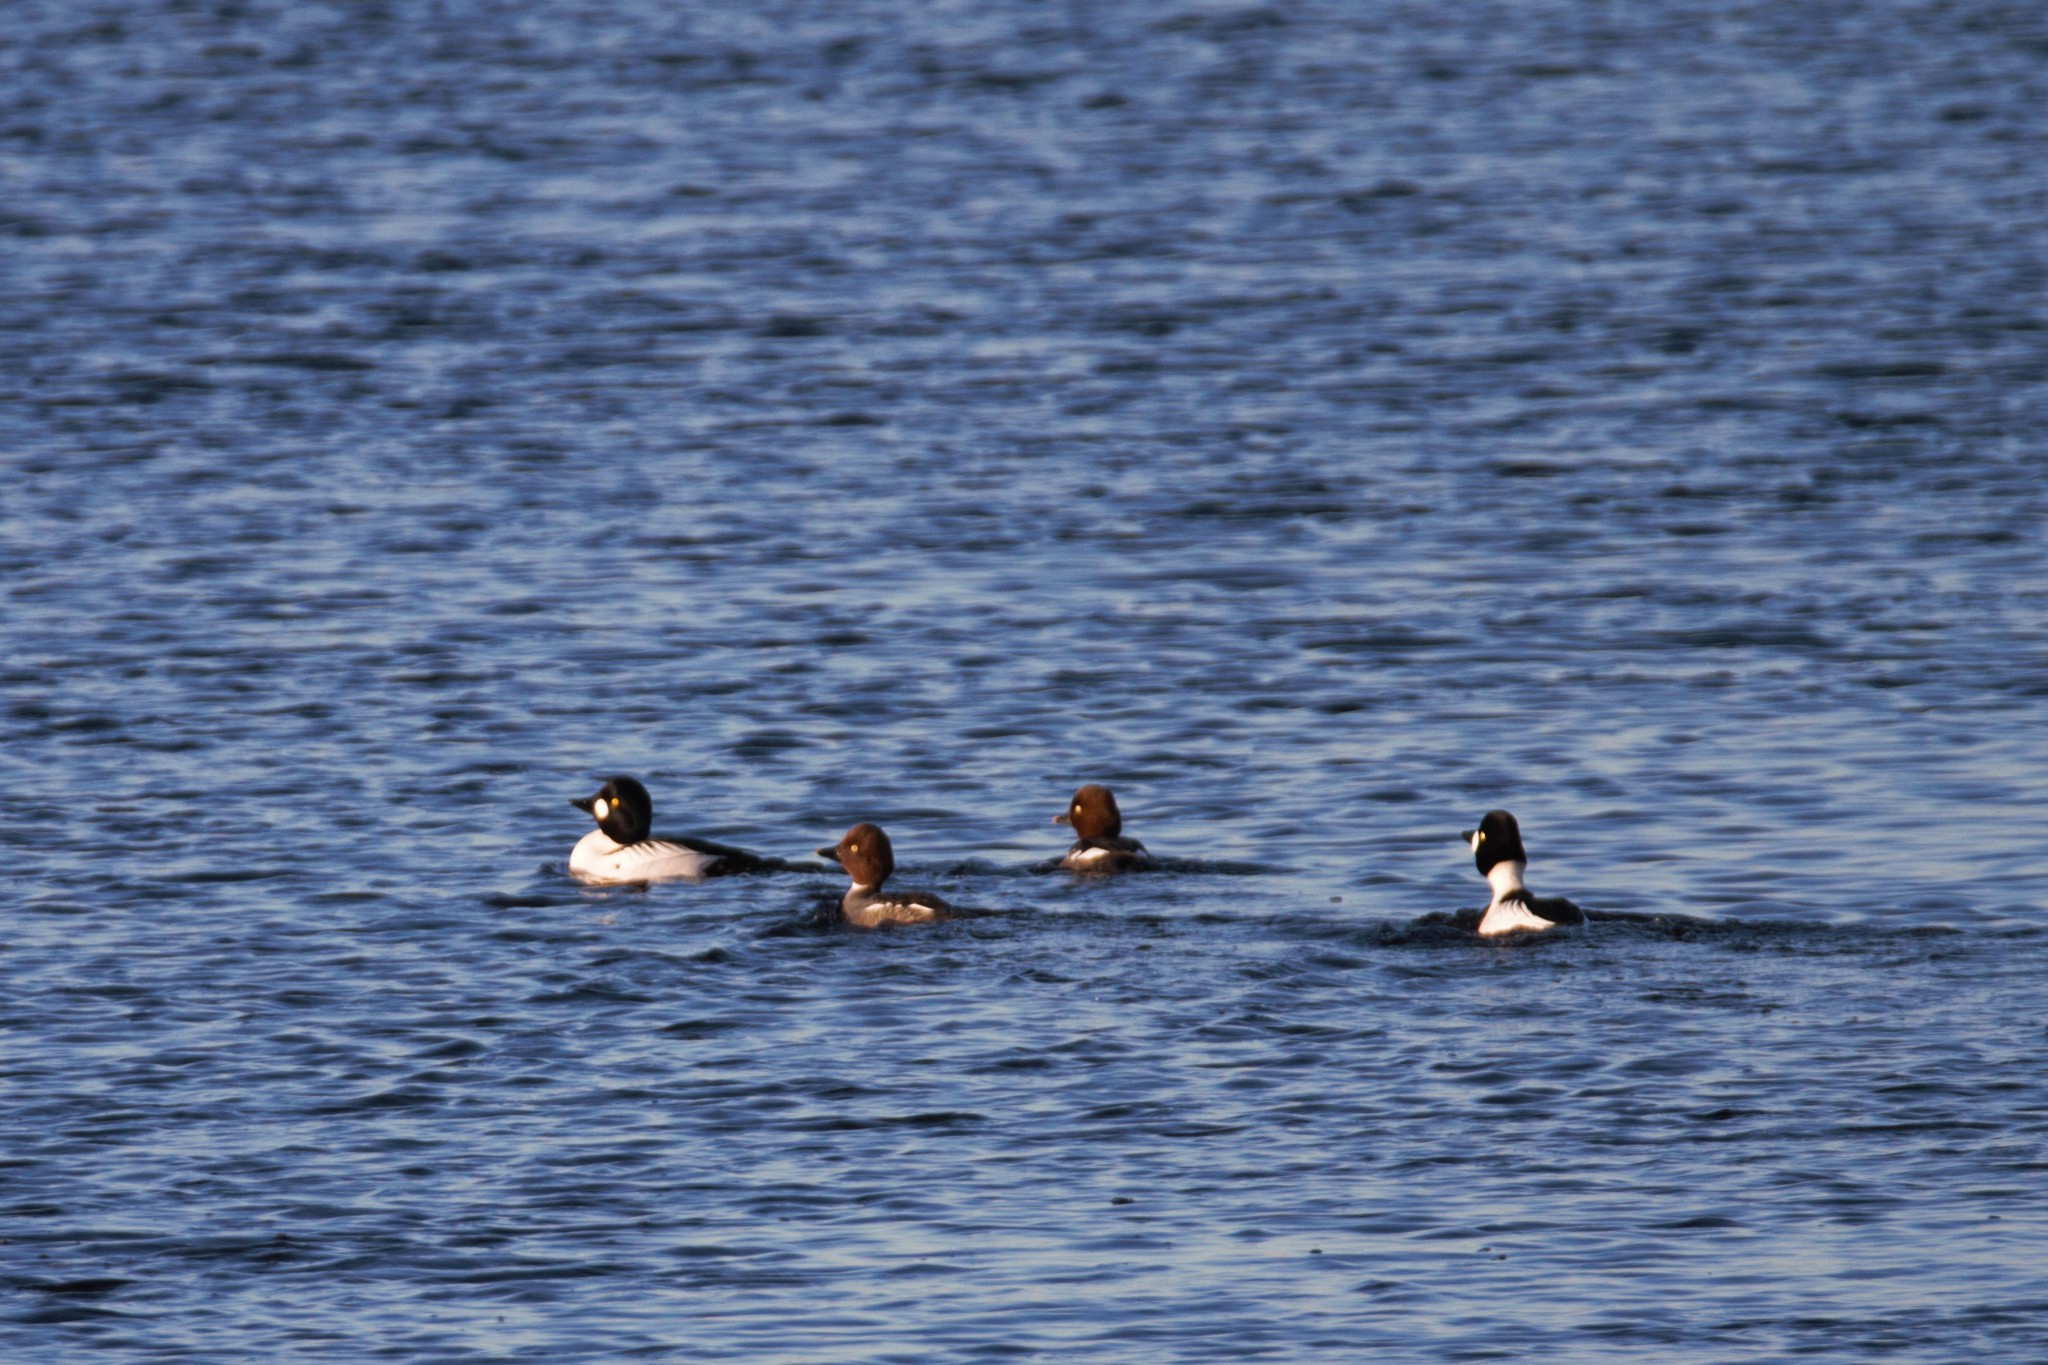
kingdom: Animalia
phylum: Chordata
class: Aves
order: Anseriformes
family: Anatidae
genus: Bucephala
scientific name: Bucephala clangula
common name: Common goldeneye
